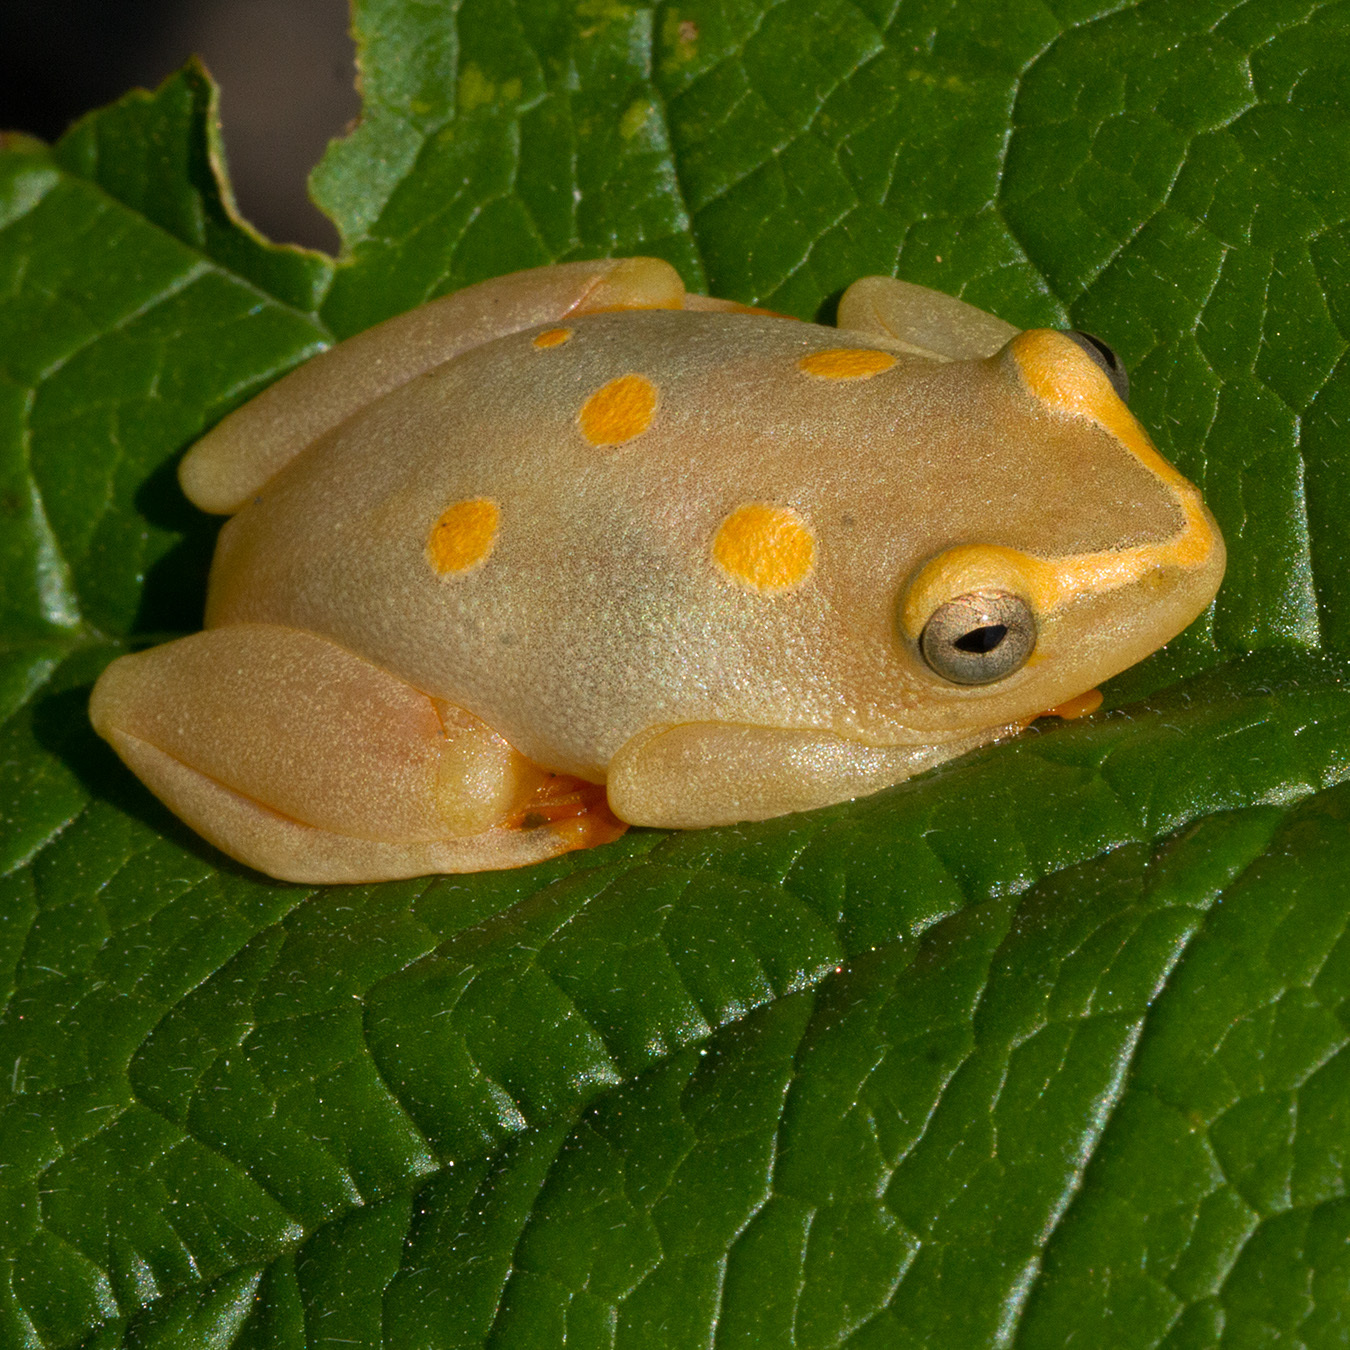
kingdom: Animalia
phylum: Chordata
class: Amphibia
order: Anura
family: Hyperoliidae
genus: Hyperolius
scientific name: Hyperolius argus
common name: Argus reed frog
